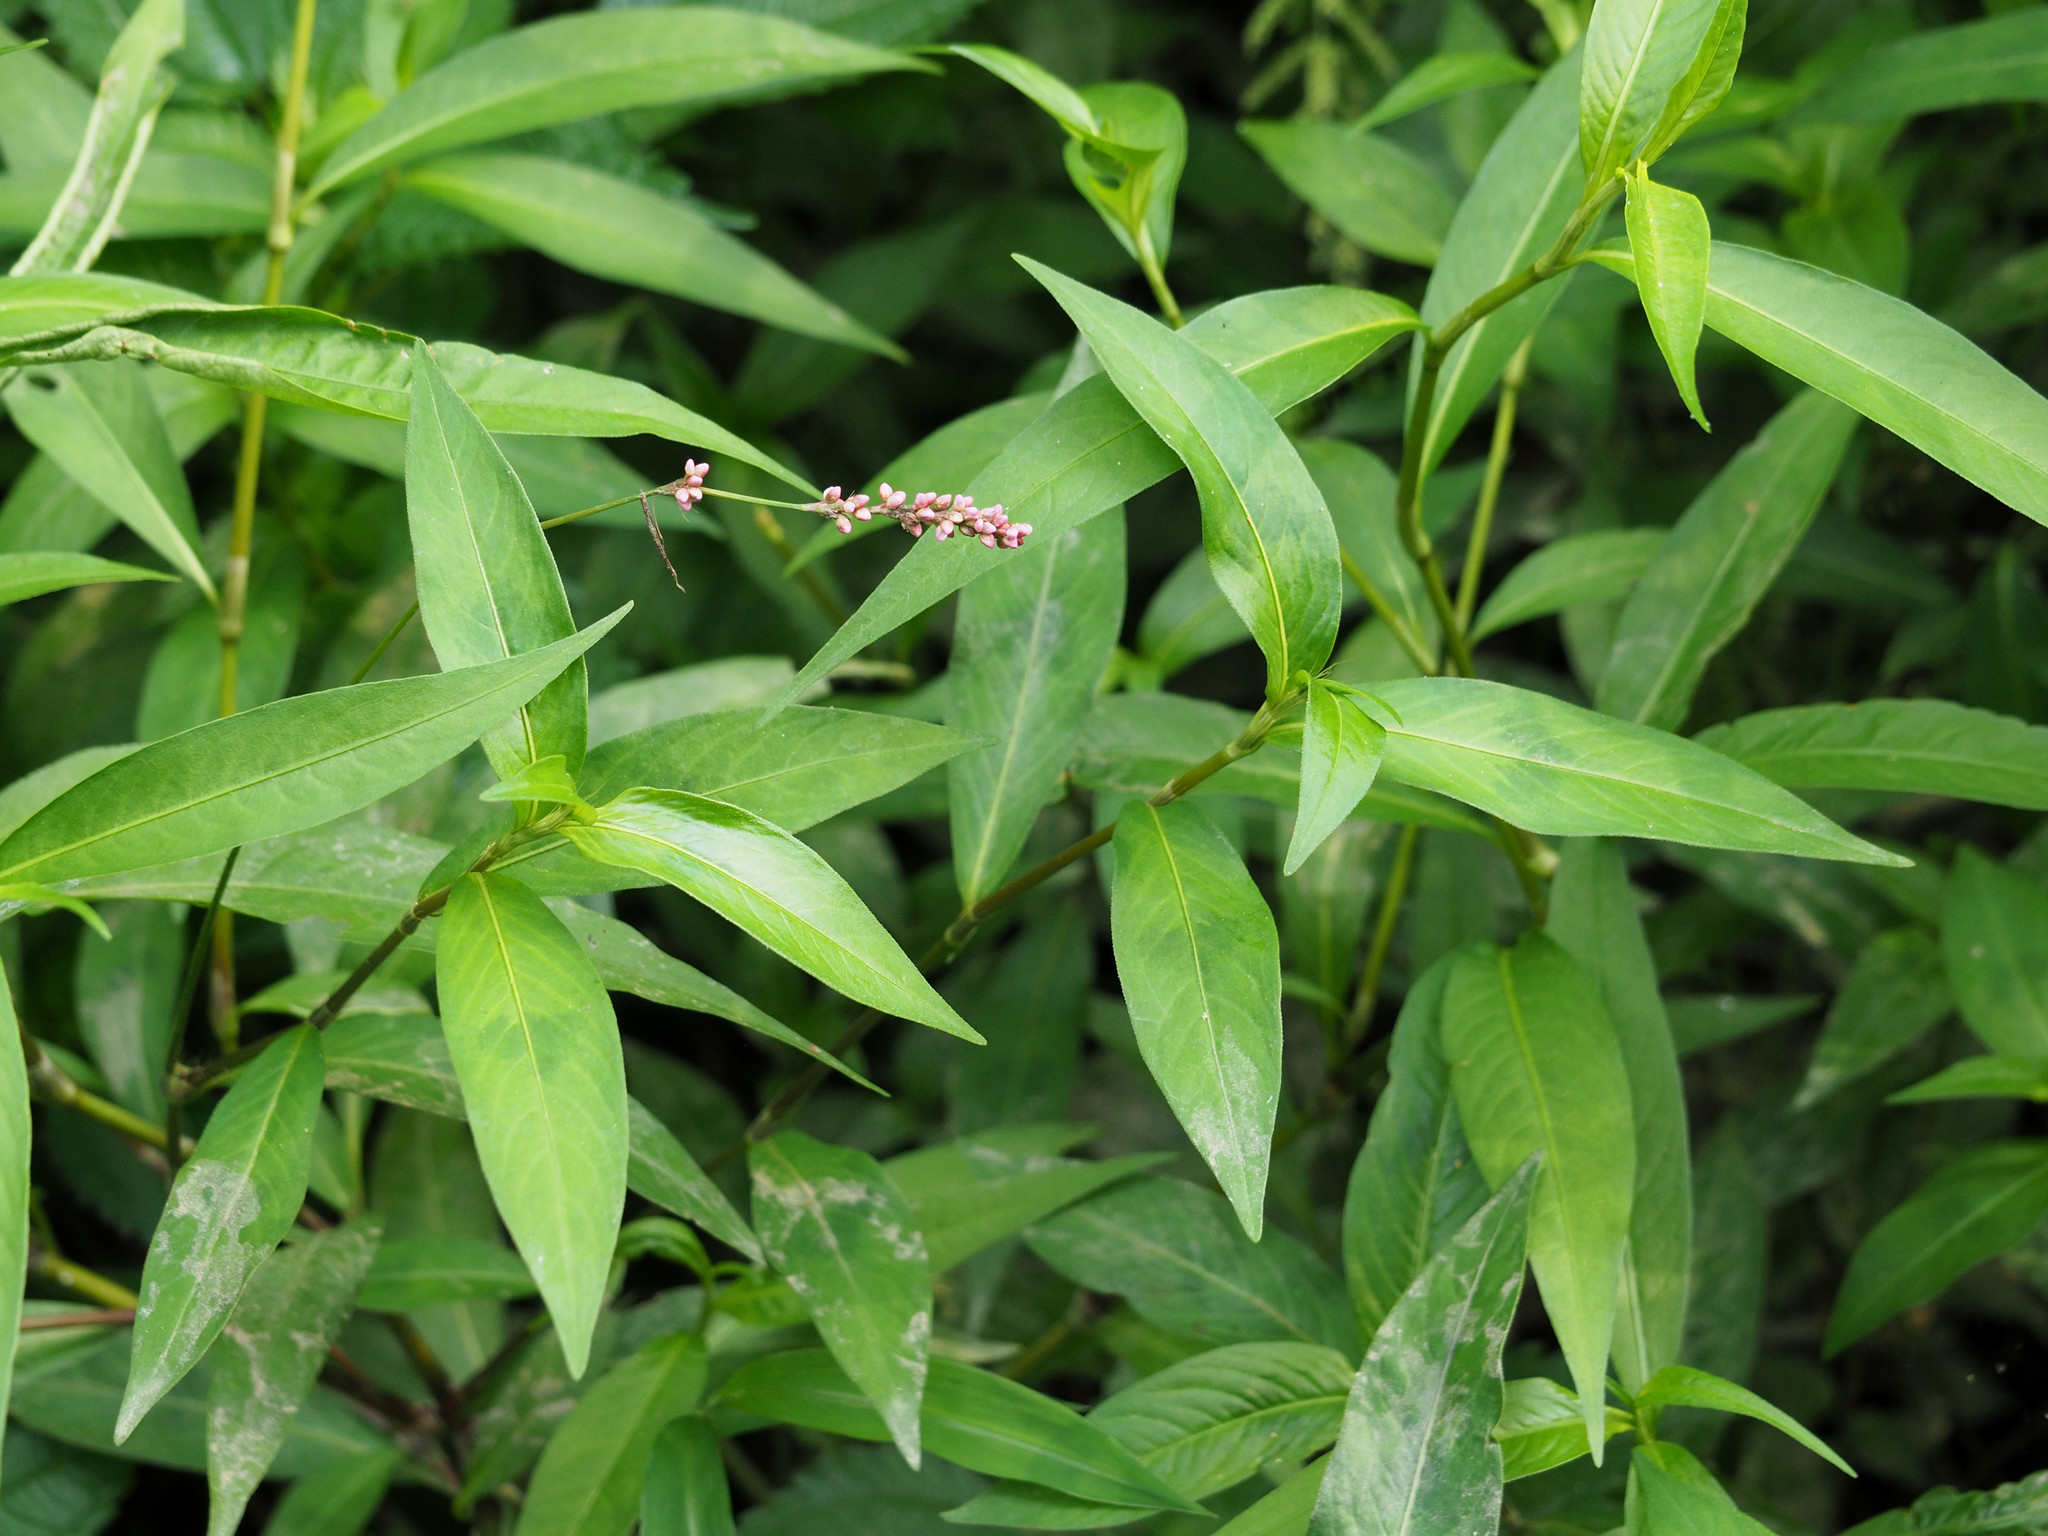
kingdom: Plantae
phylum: Tracheophyta
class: Magnoliopsida
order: Caryophyllales
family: Polygonaceae
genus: Persicaria
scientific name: Persicaria longiseta
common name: Bristly lady's-thumb
